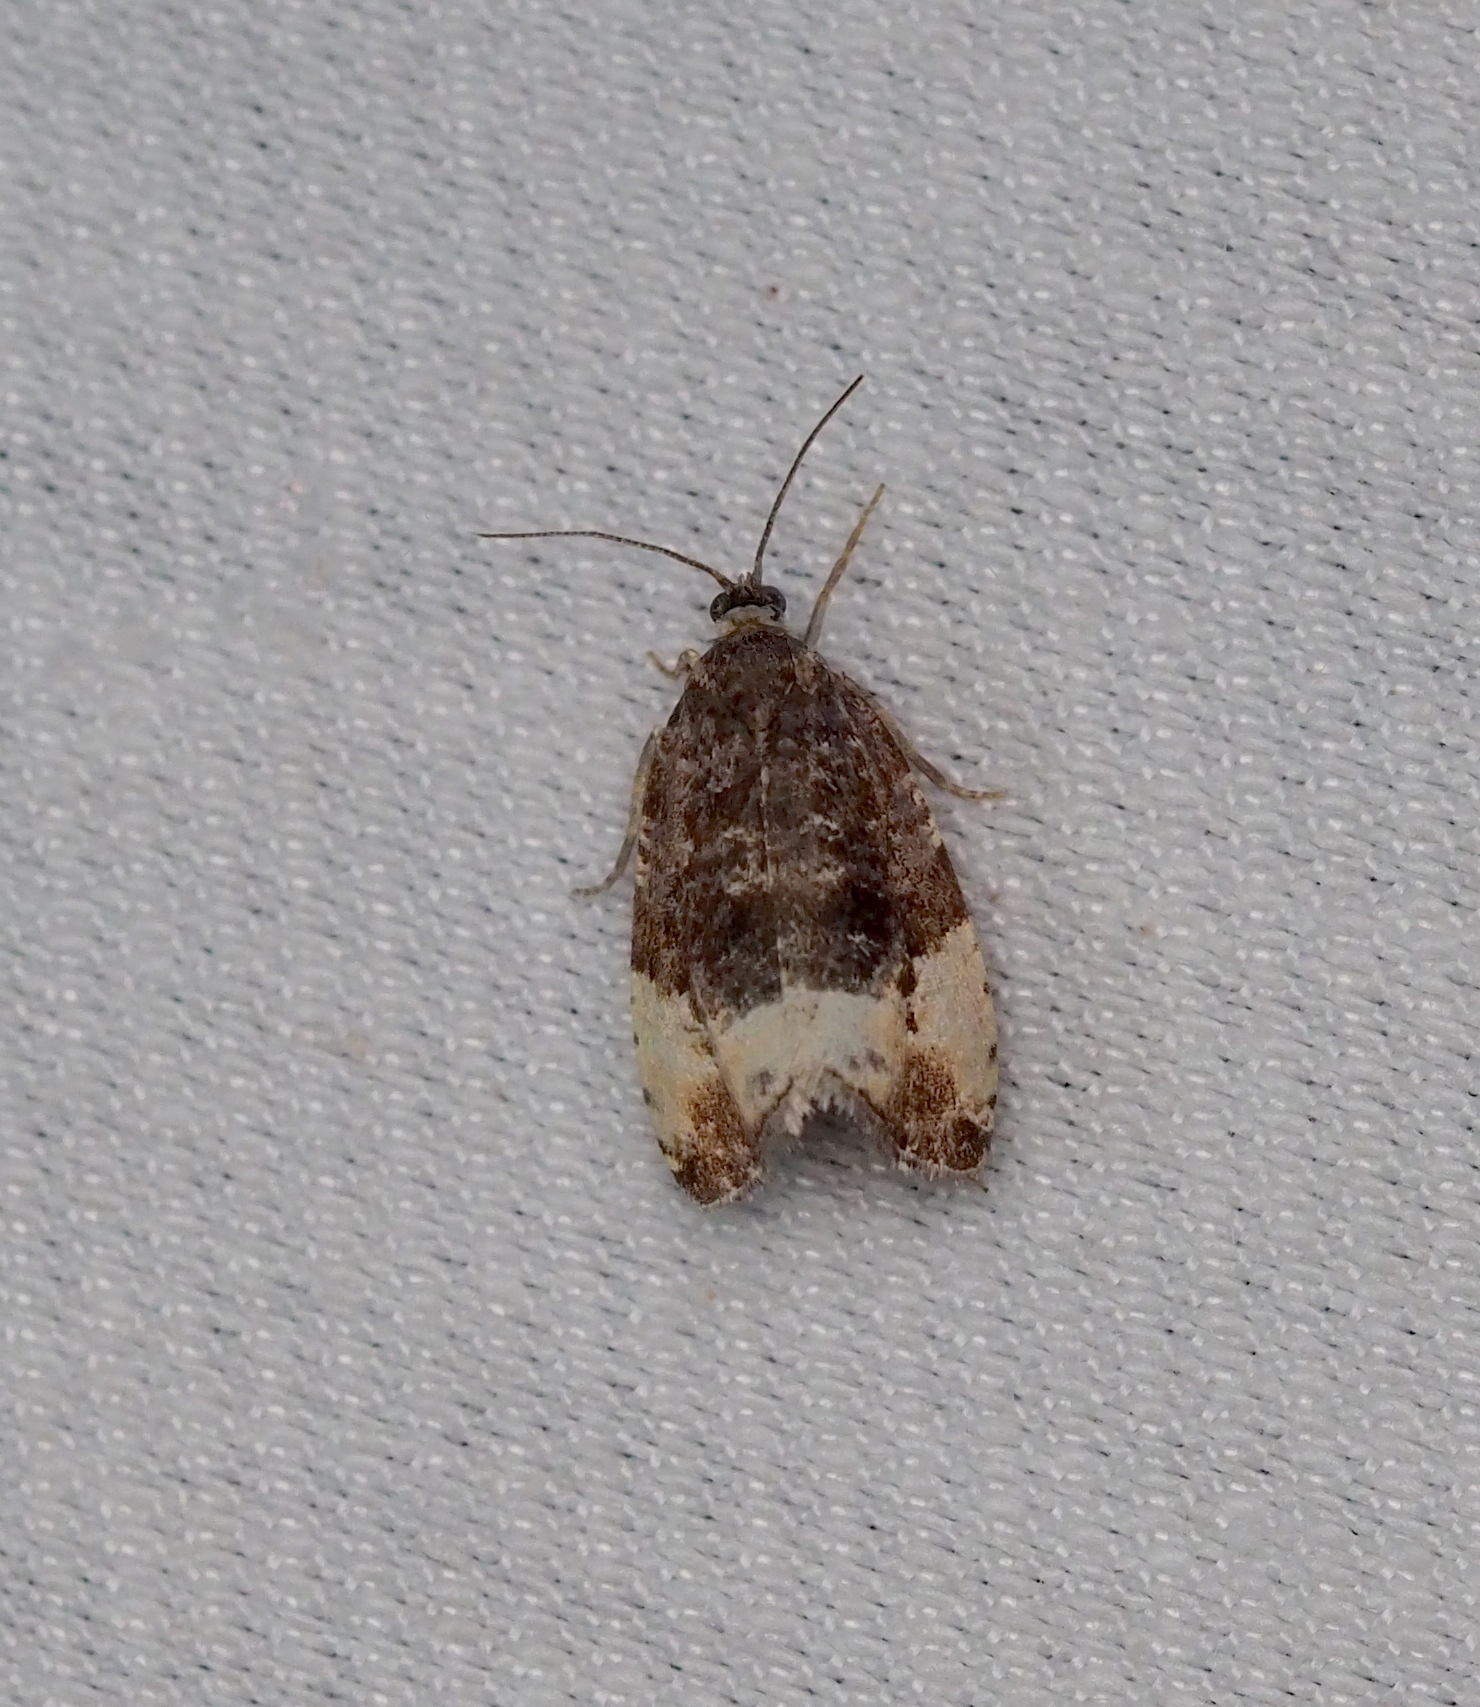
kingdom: Animalia
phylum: Arthropoda
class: Insecta
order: Lepidoptera
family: Tortricidae
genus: Hedya
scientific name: Hedya pruniana
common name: Plum tortrix
